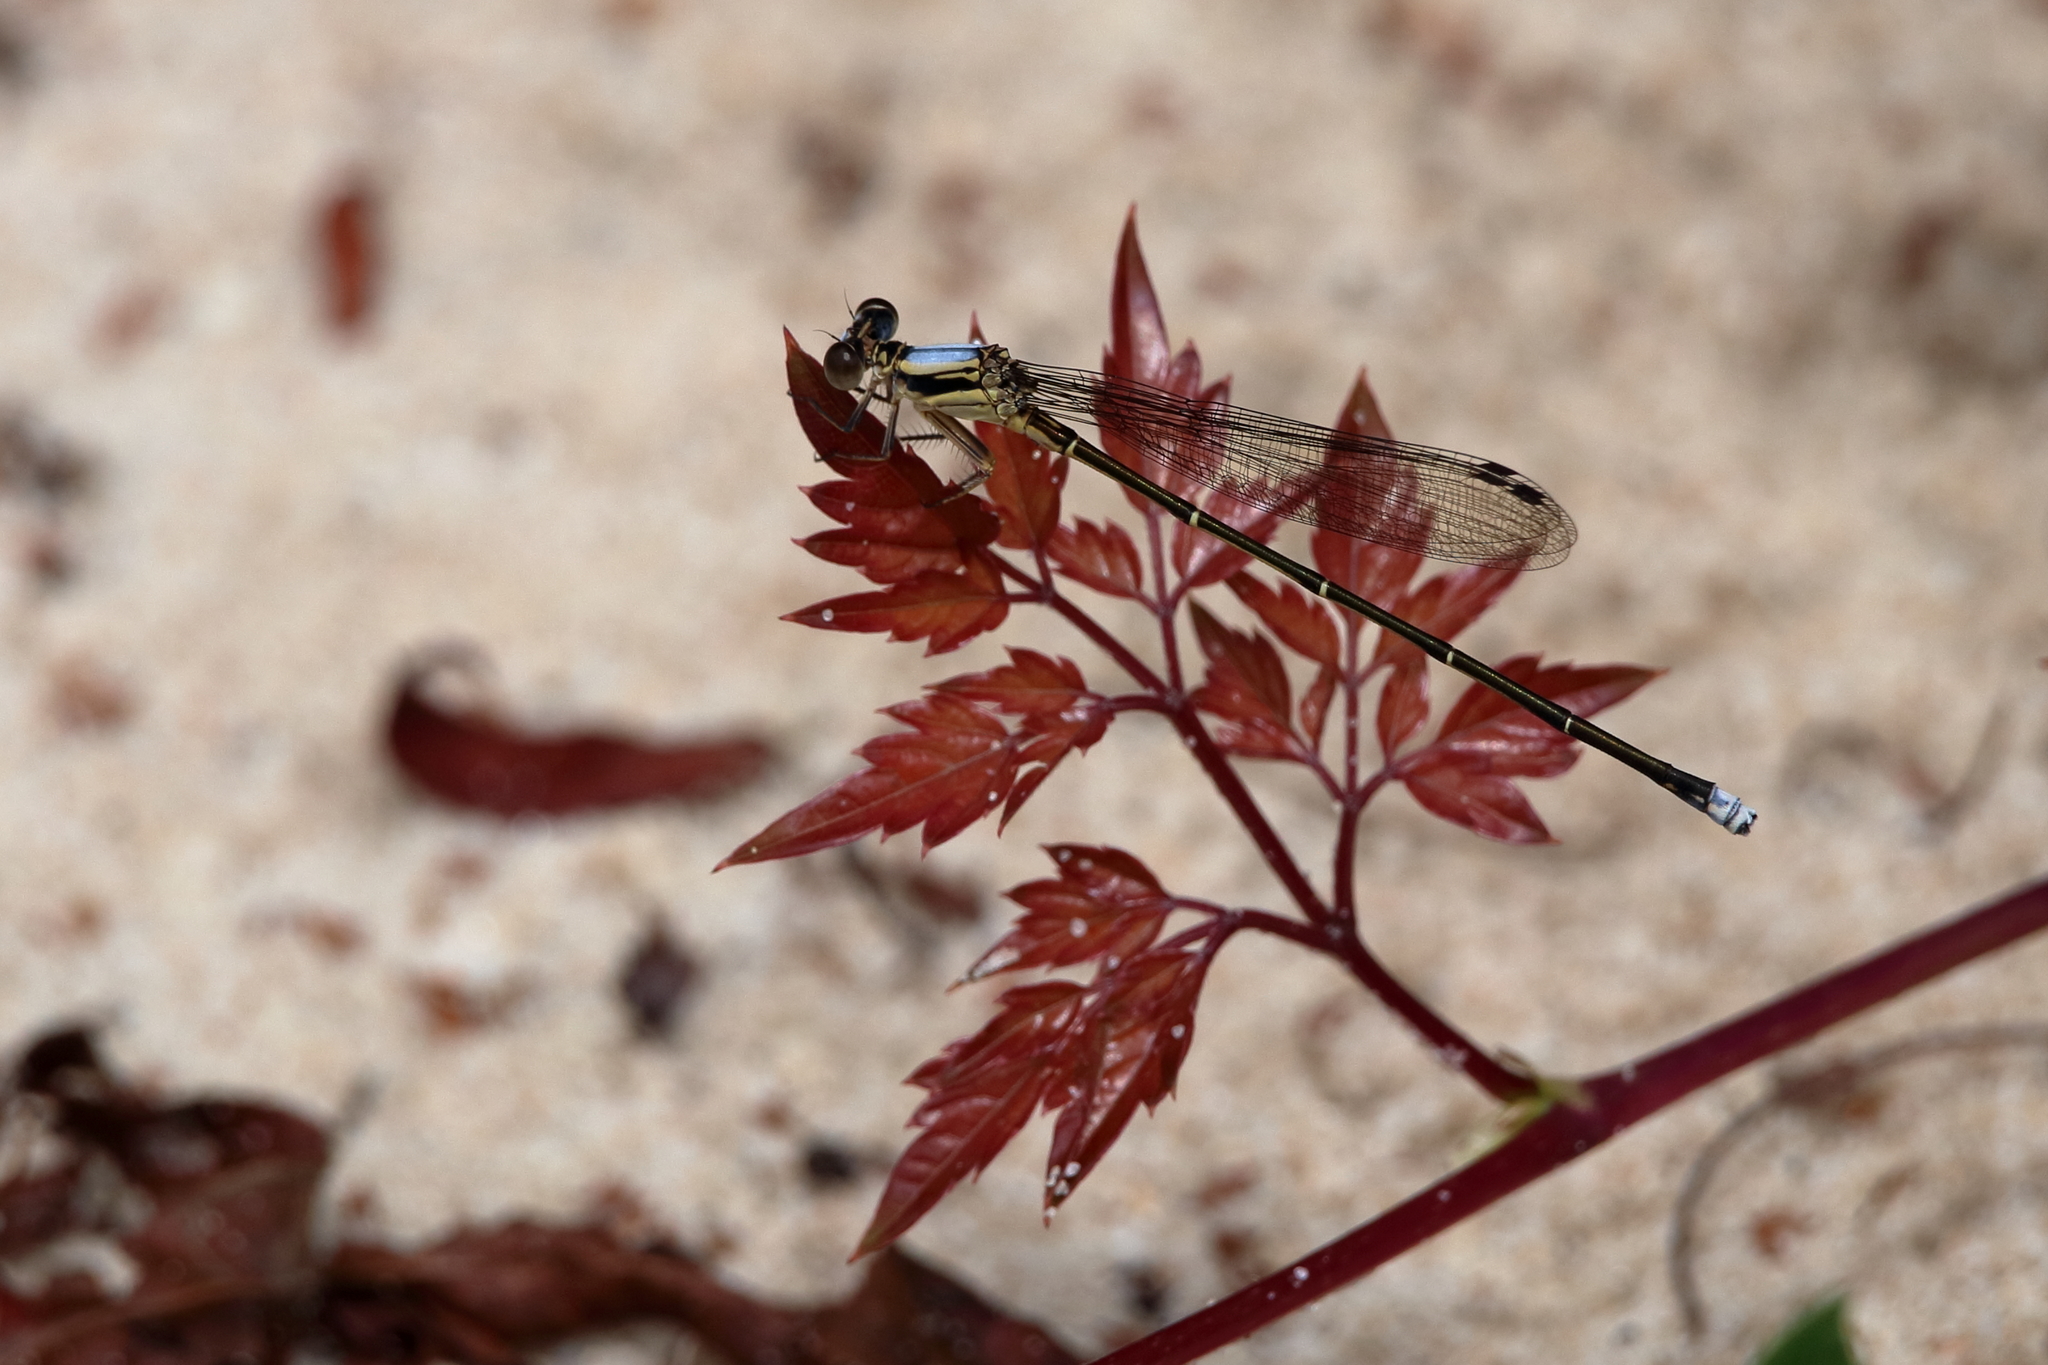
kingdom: Animalia
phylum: Arthropoda
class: Insecta
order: Odonata
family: Coenagrionidae
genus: Argia
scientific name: Argia tibialis
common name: Blue-tipped dancer
